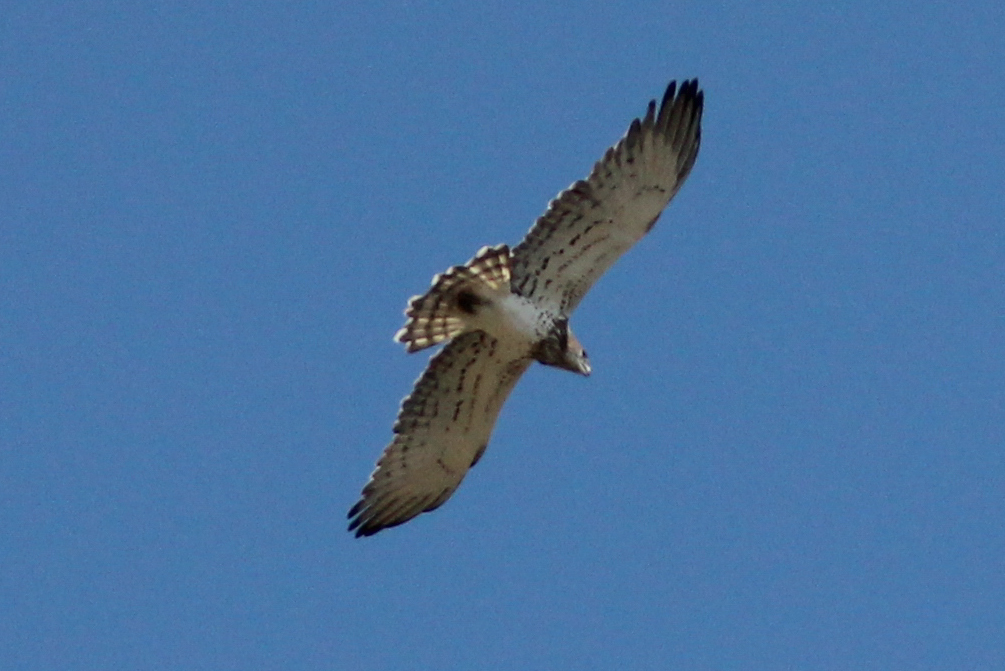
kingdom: Animalia
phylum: Chordata
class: Aves
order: Accipitriformes
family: Accipitridae
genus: Circaetus
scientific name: Circaetus gallicus
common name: Short-toed snake eagle
